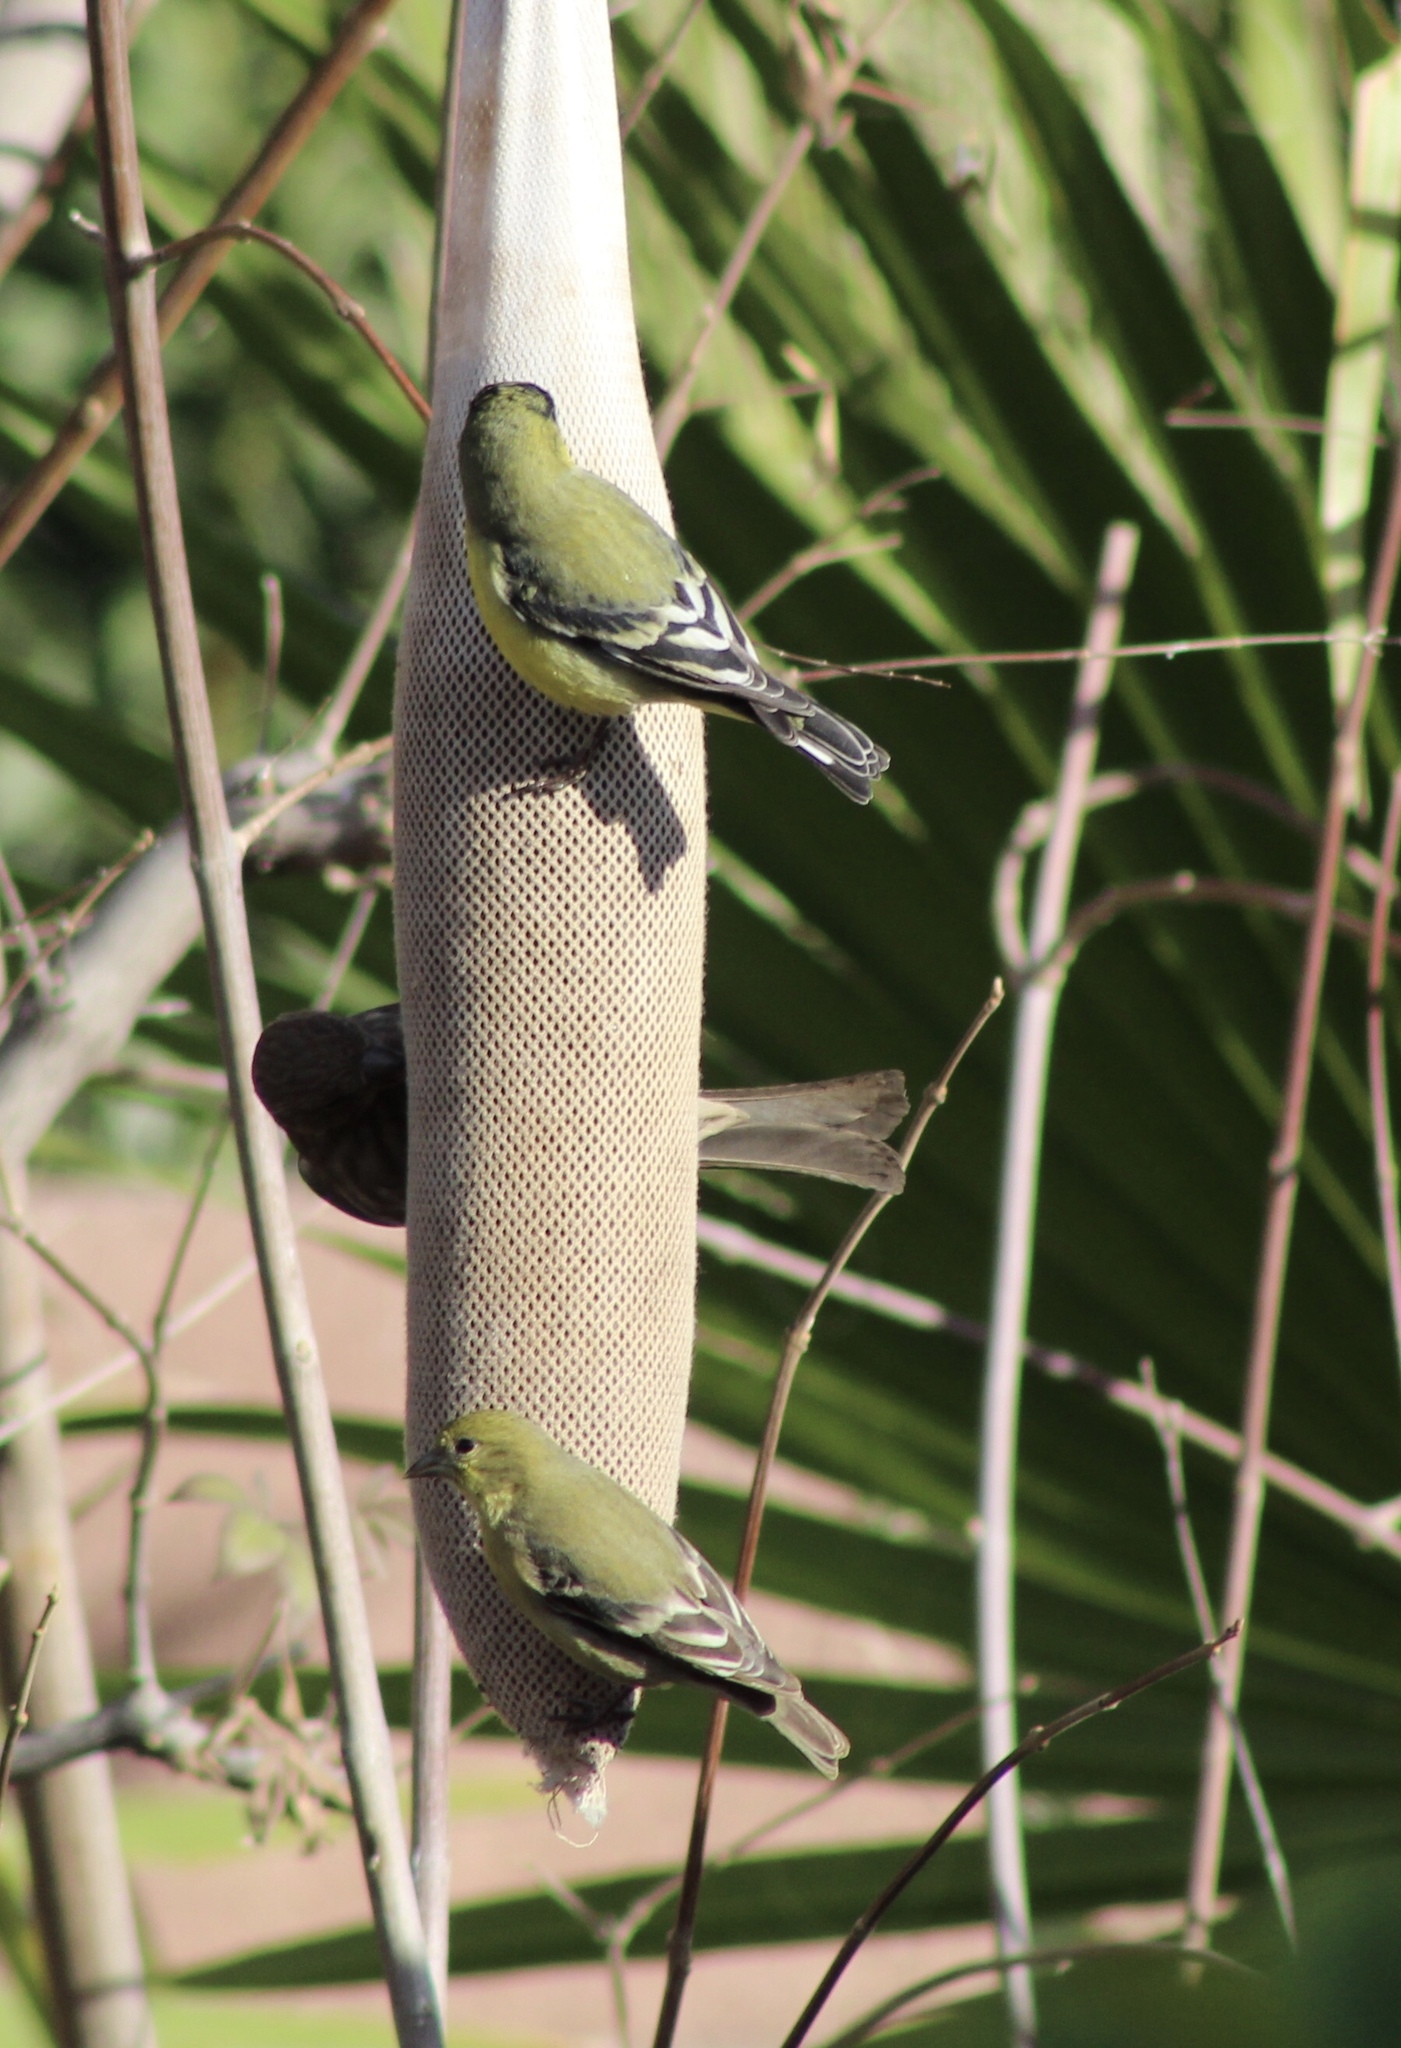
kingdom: Animalia
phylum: Chordata
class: Aves
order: Passeriformes
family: Fringillidae
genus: Spinus
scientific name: Spinus psaltria
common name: Lesser goldfinch
